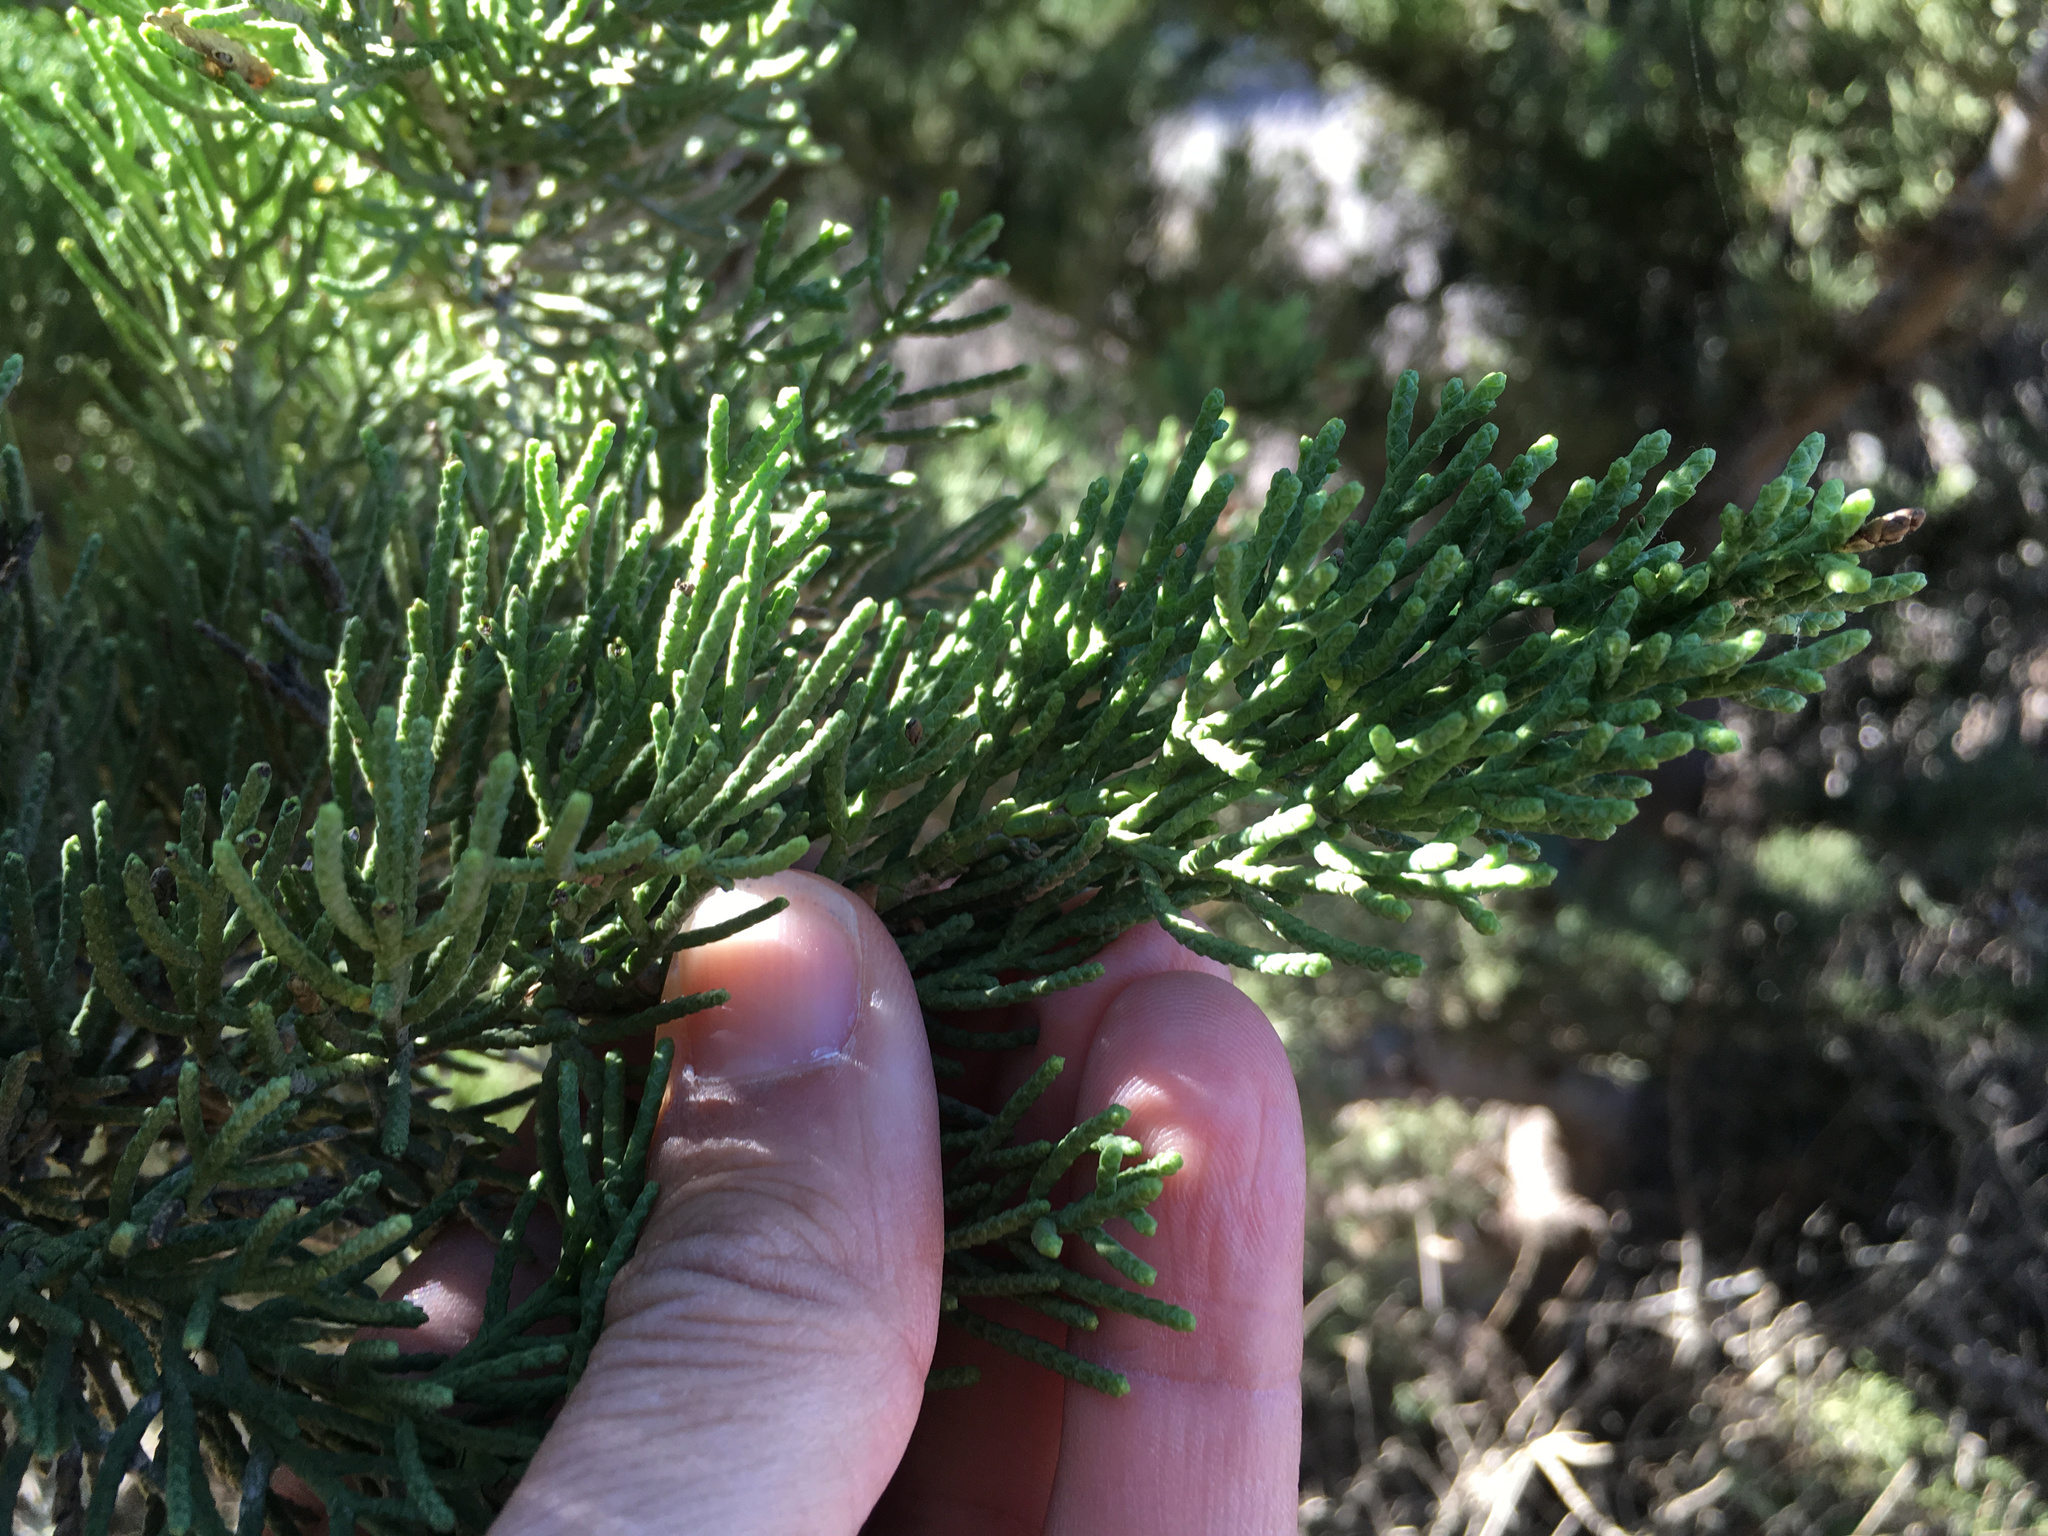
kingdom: Plantae
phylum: Tracheophyta
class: Pinopsida
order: Pinales
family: Cupressaceae
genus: Cupressus
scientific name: Cupressus macrocarpa
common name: Monterey cypress
